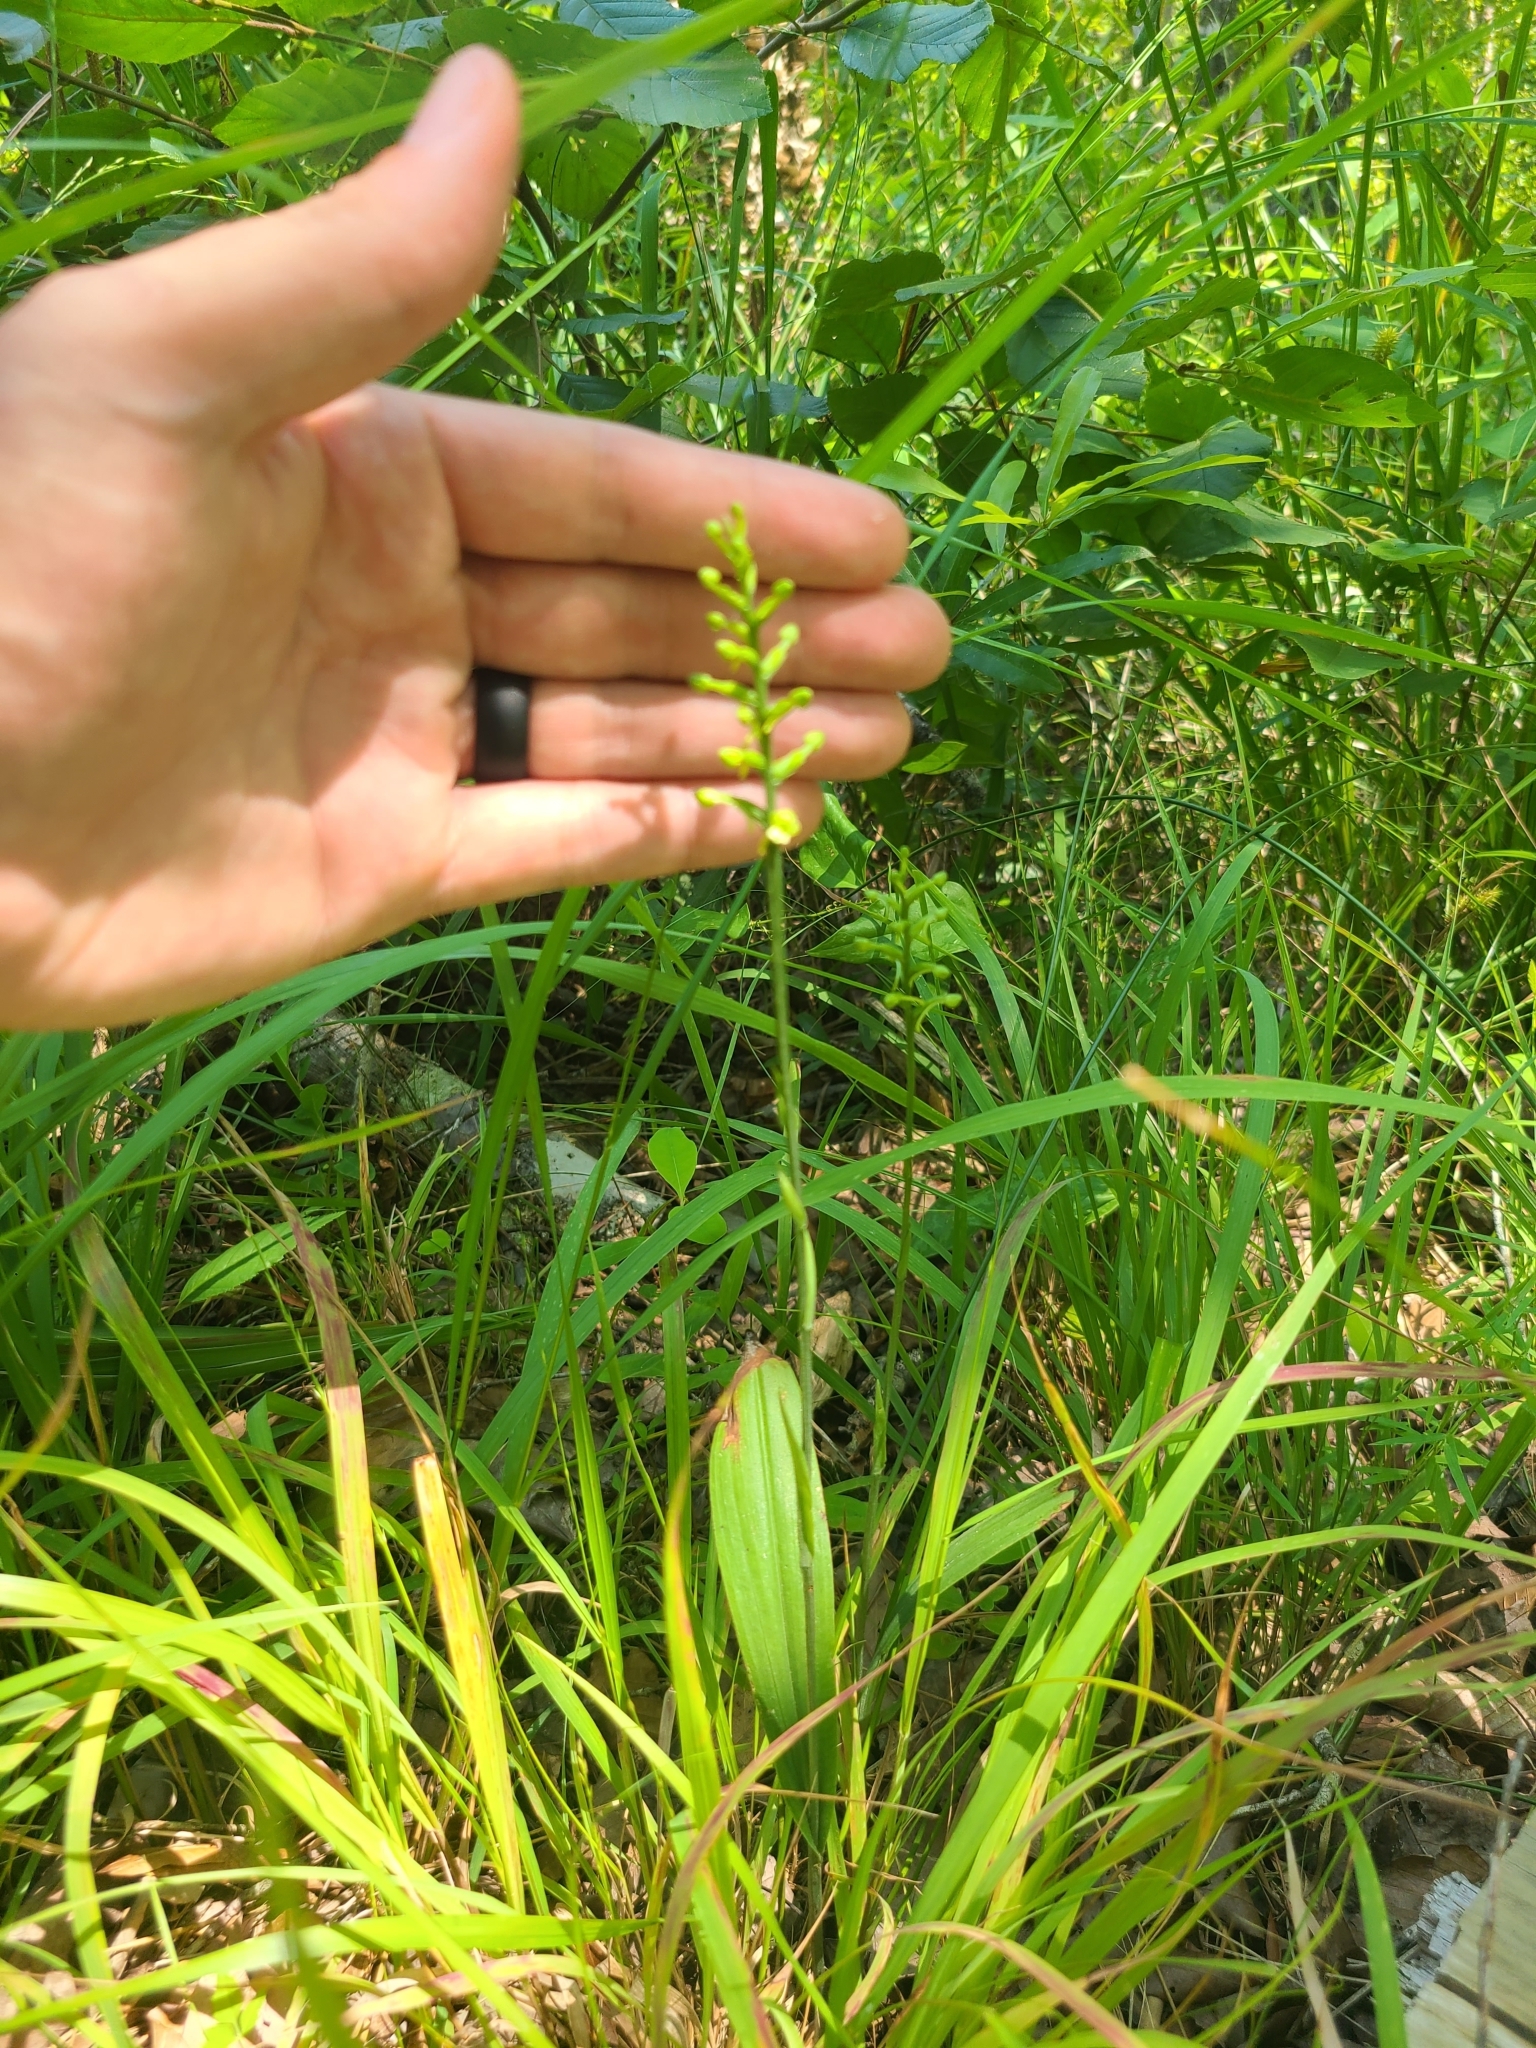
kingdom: Plantae
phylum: Tracheophyta
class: Liliopsida
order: Asparagales
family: Orchidaceae
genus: Platanthera
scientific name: Platanthera clavellata
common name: Club-spur orchid
